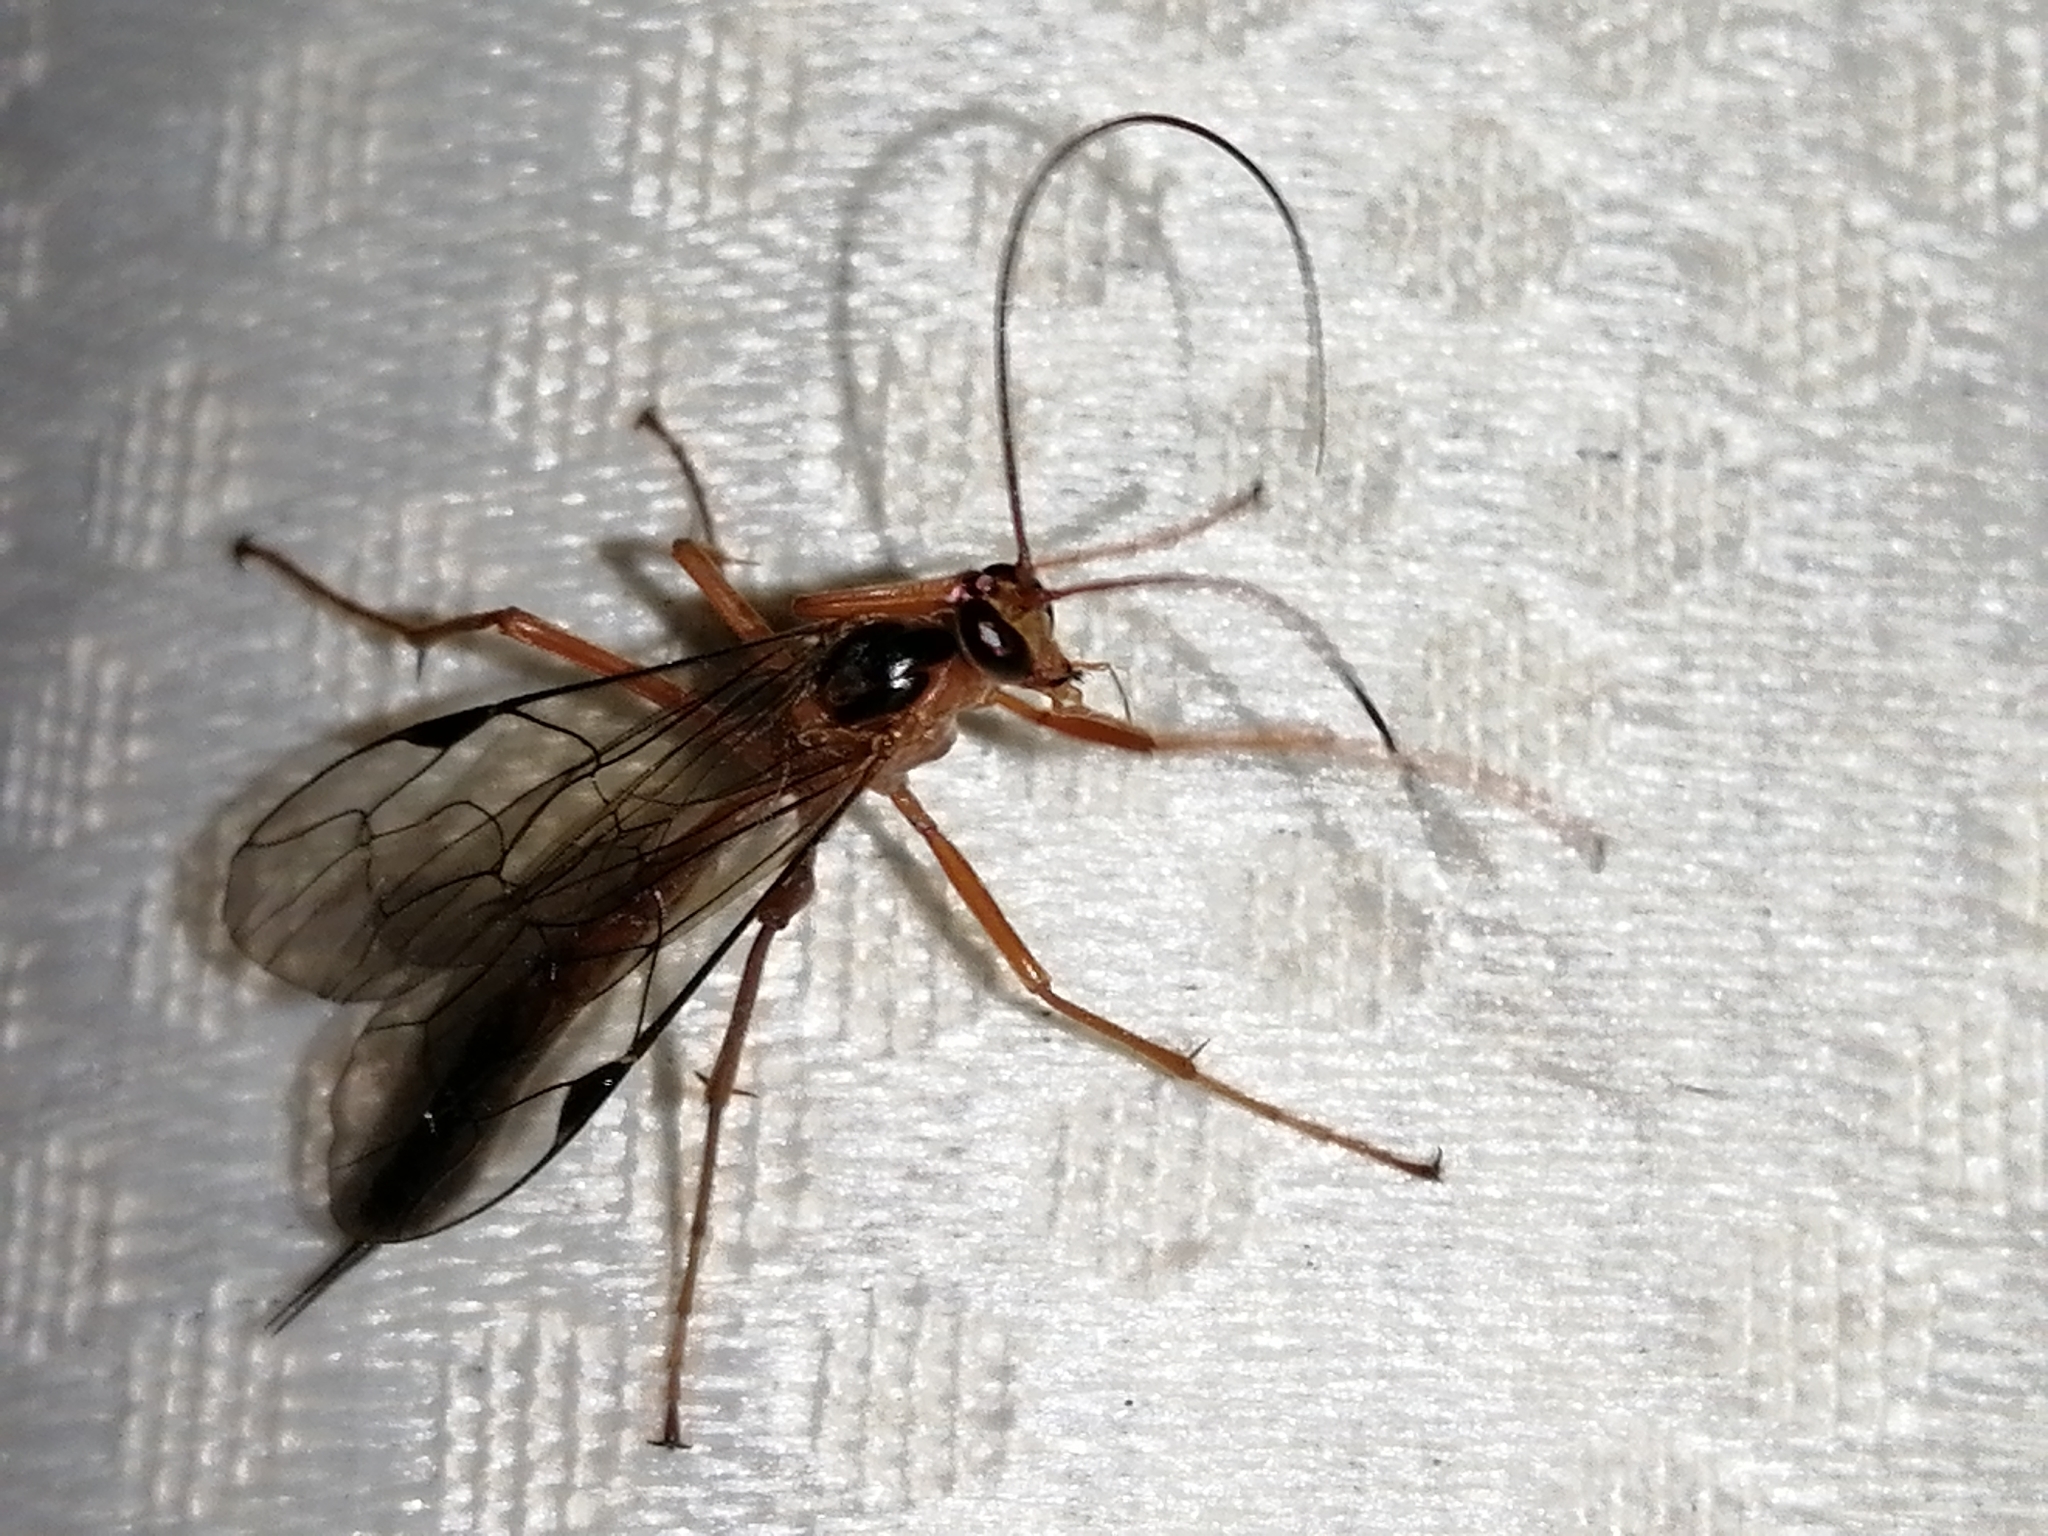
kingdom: Animalia
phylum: Arthropoda
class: Insecta
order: Hymenoptera
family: Ichneumonidae
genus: Netelia
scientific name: Netelia ephippiata
